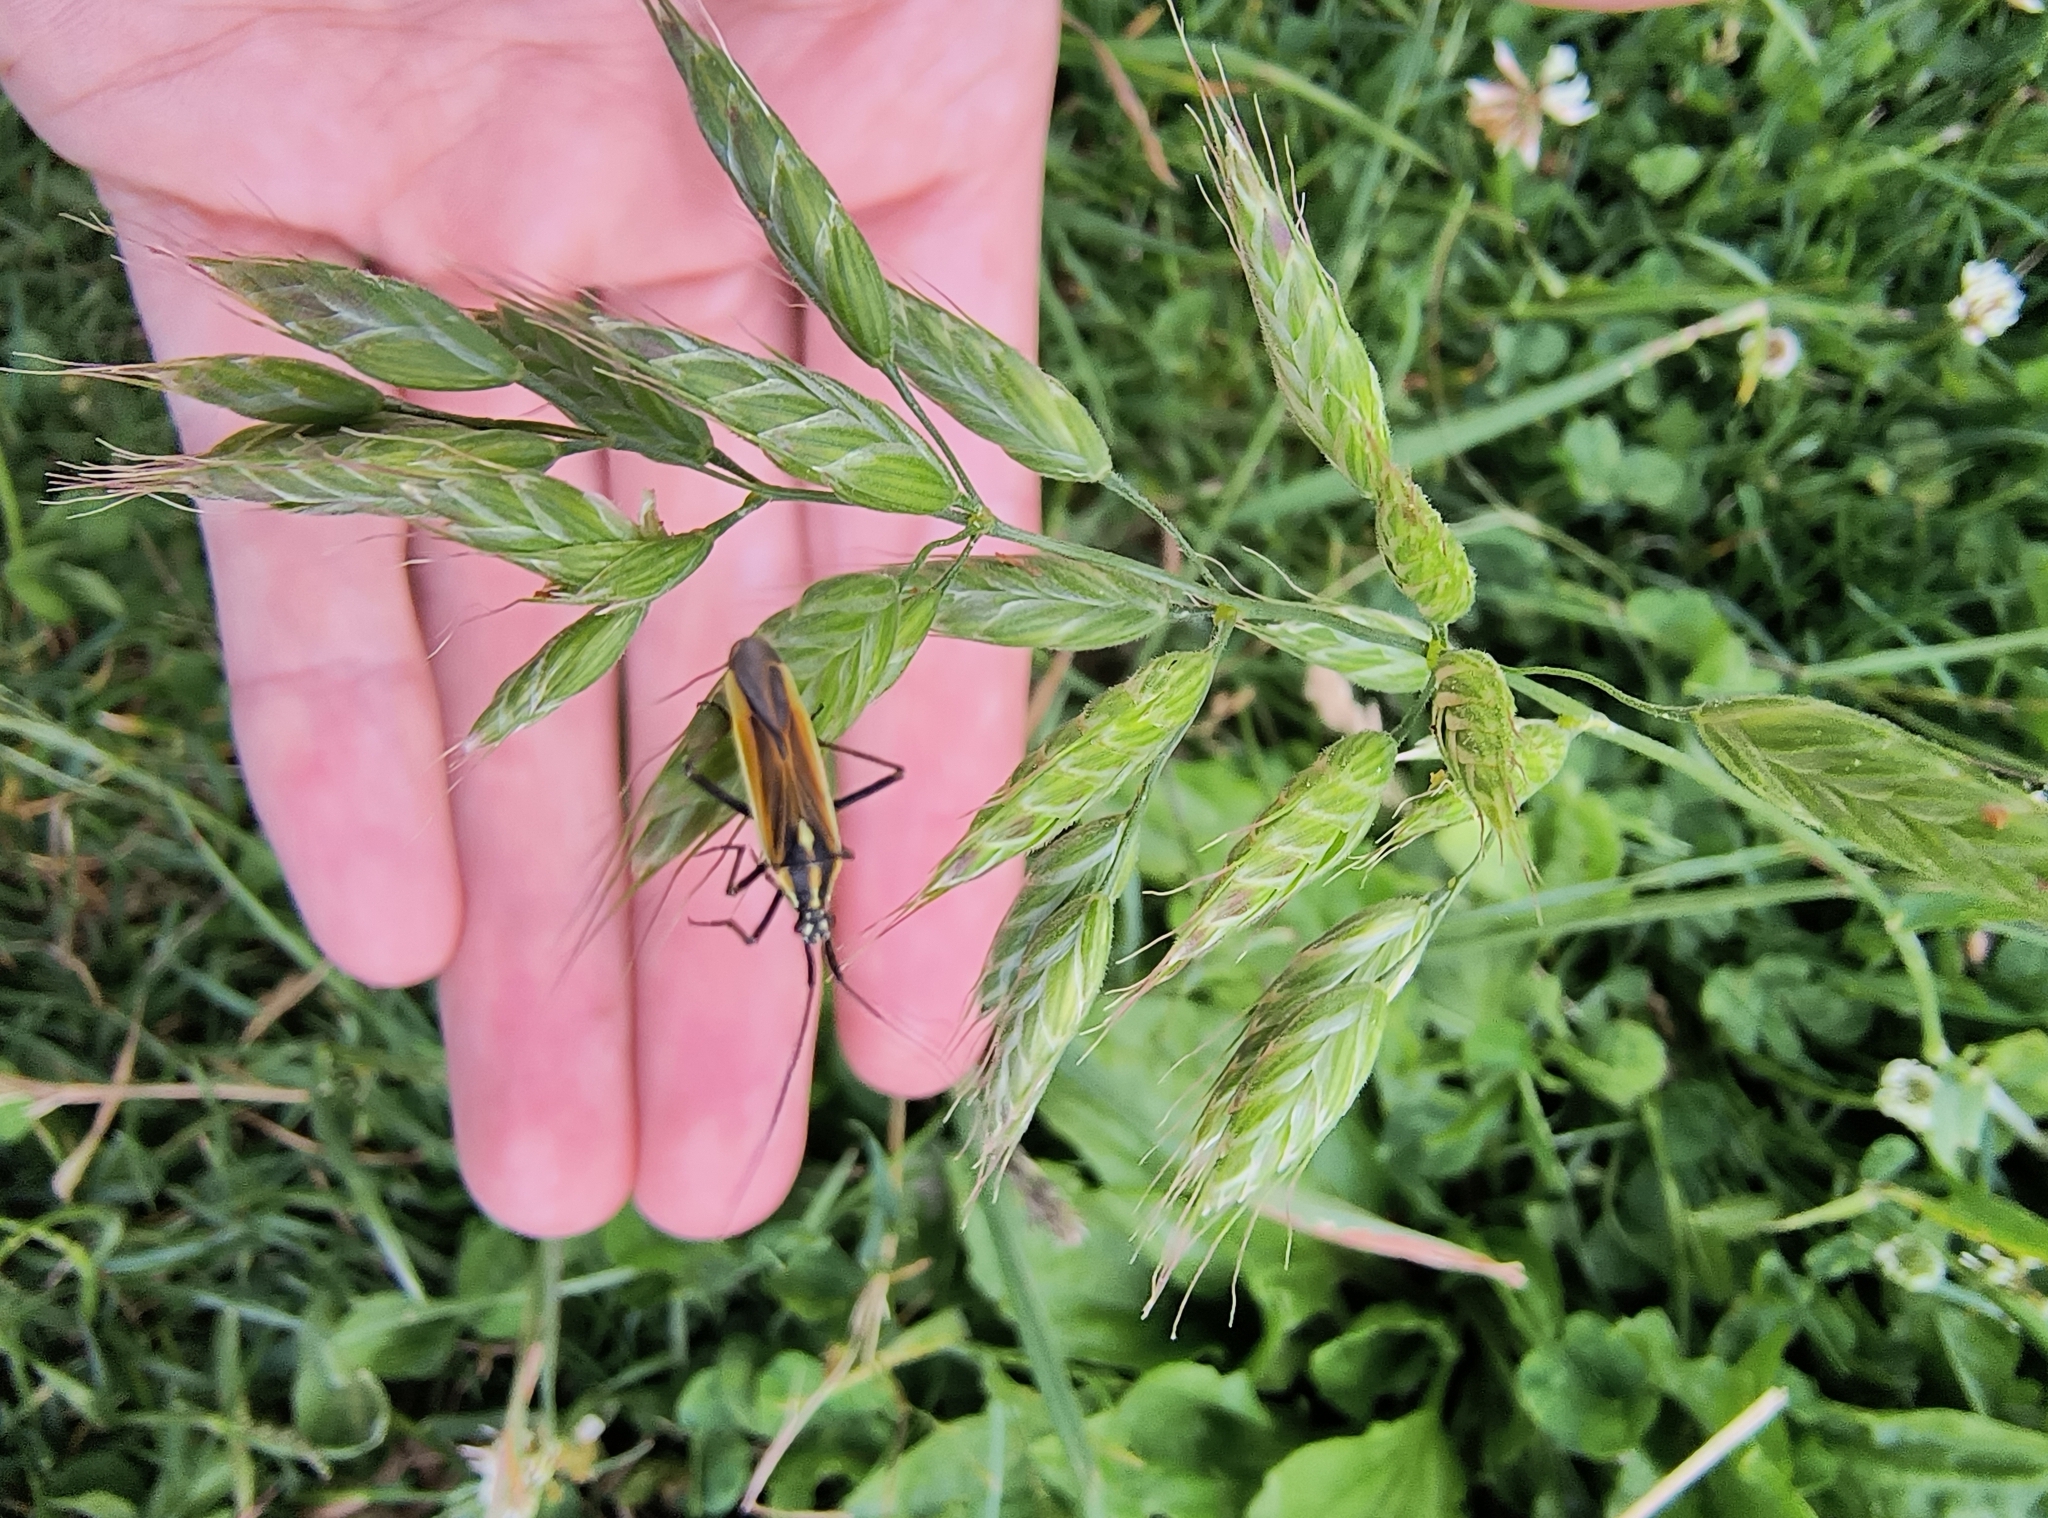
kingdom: Animalia
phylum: Arthropoda
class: Insecta
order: Hemiptera
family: Miridae
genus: Leptopterna
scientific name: Leptopterna dolabrata
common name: Meadow plant bug
